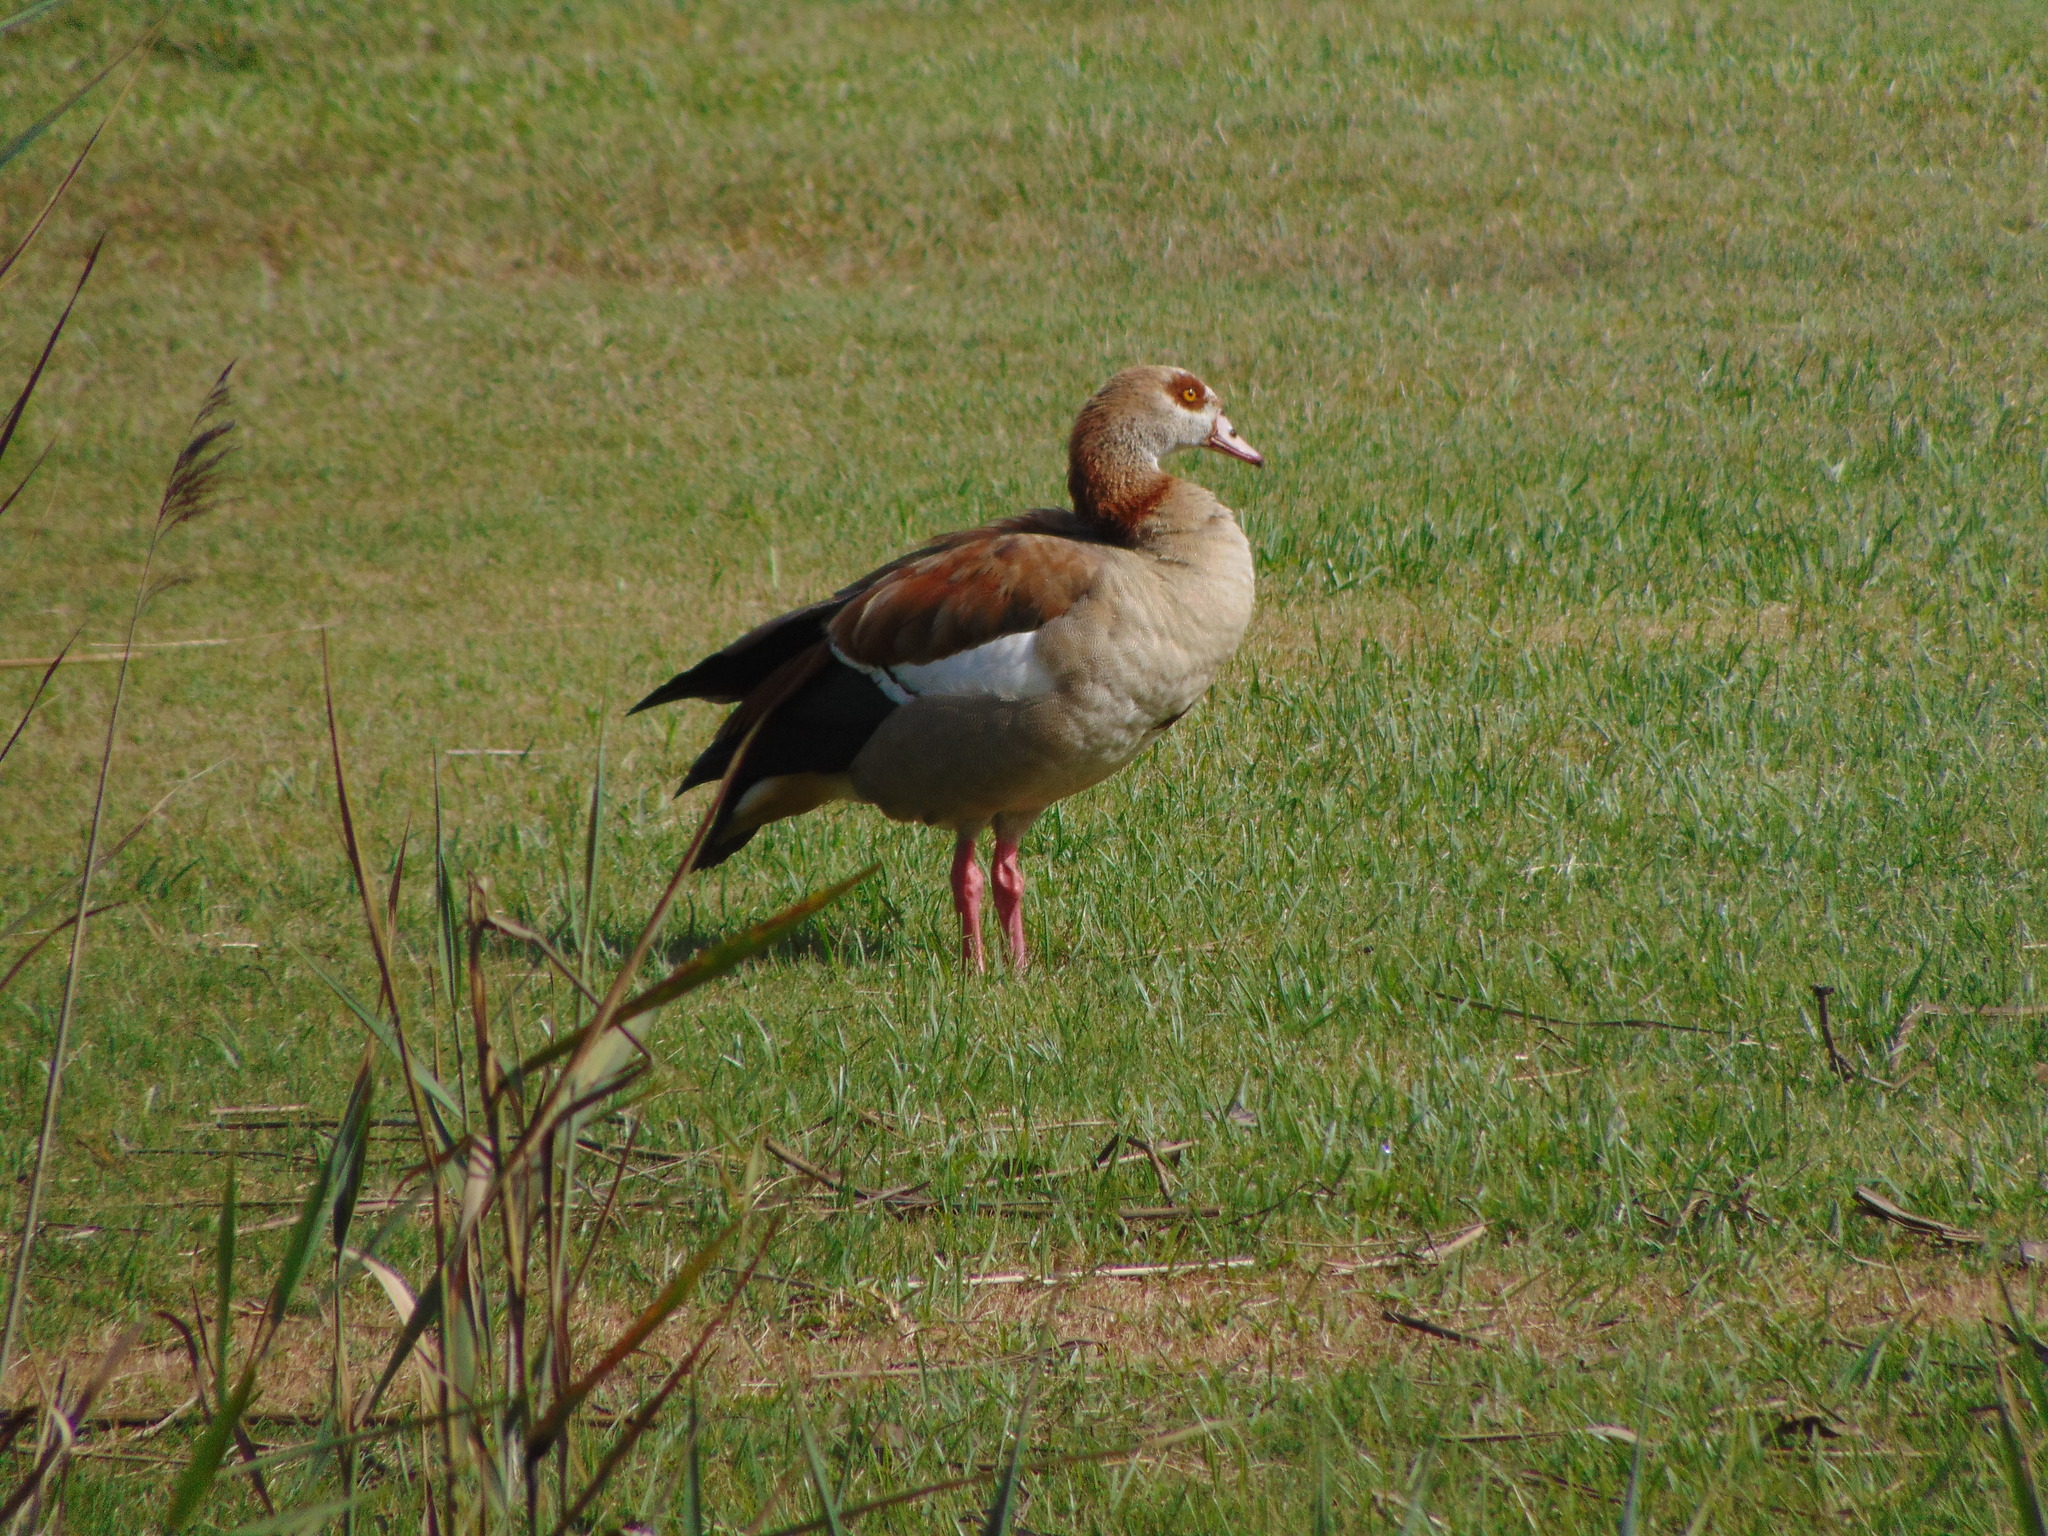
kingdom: Animalia
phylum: Chordata
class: Aves
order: Anseriformes
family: Anatidae
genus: Alopochen
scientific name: Alopochen aegyptiaca
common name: Egyptian goose
